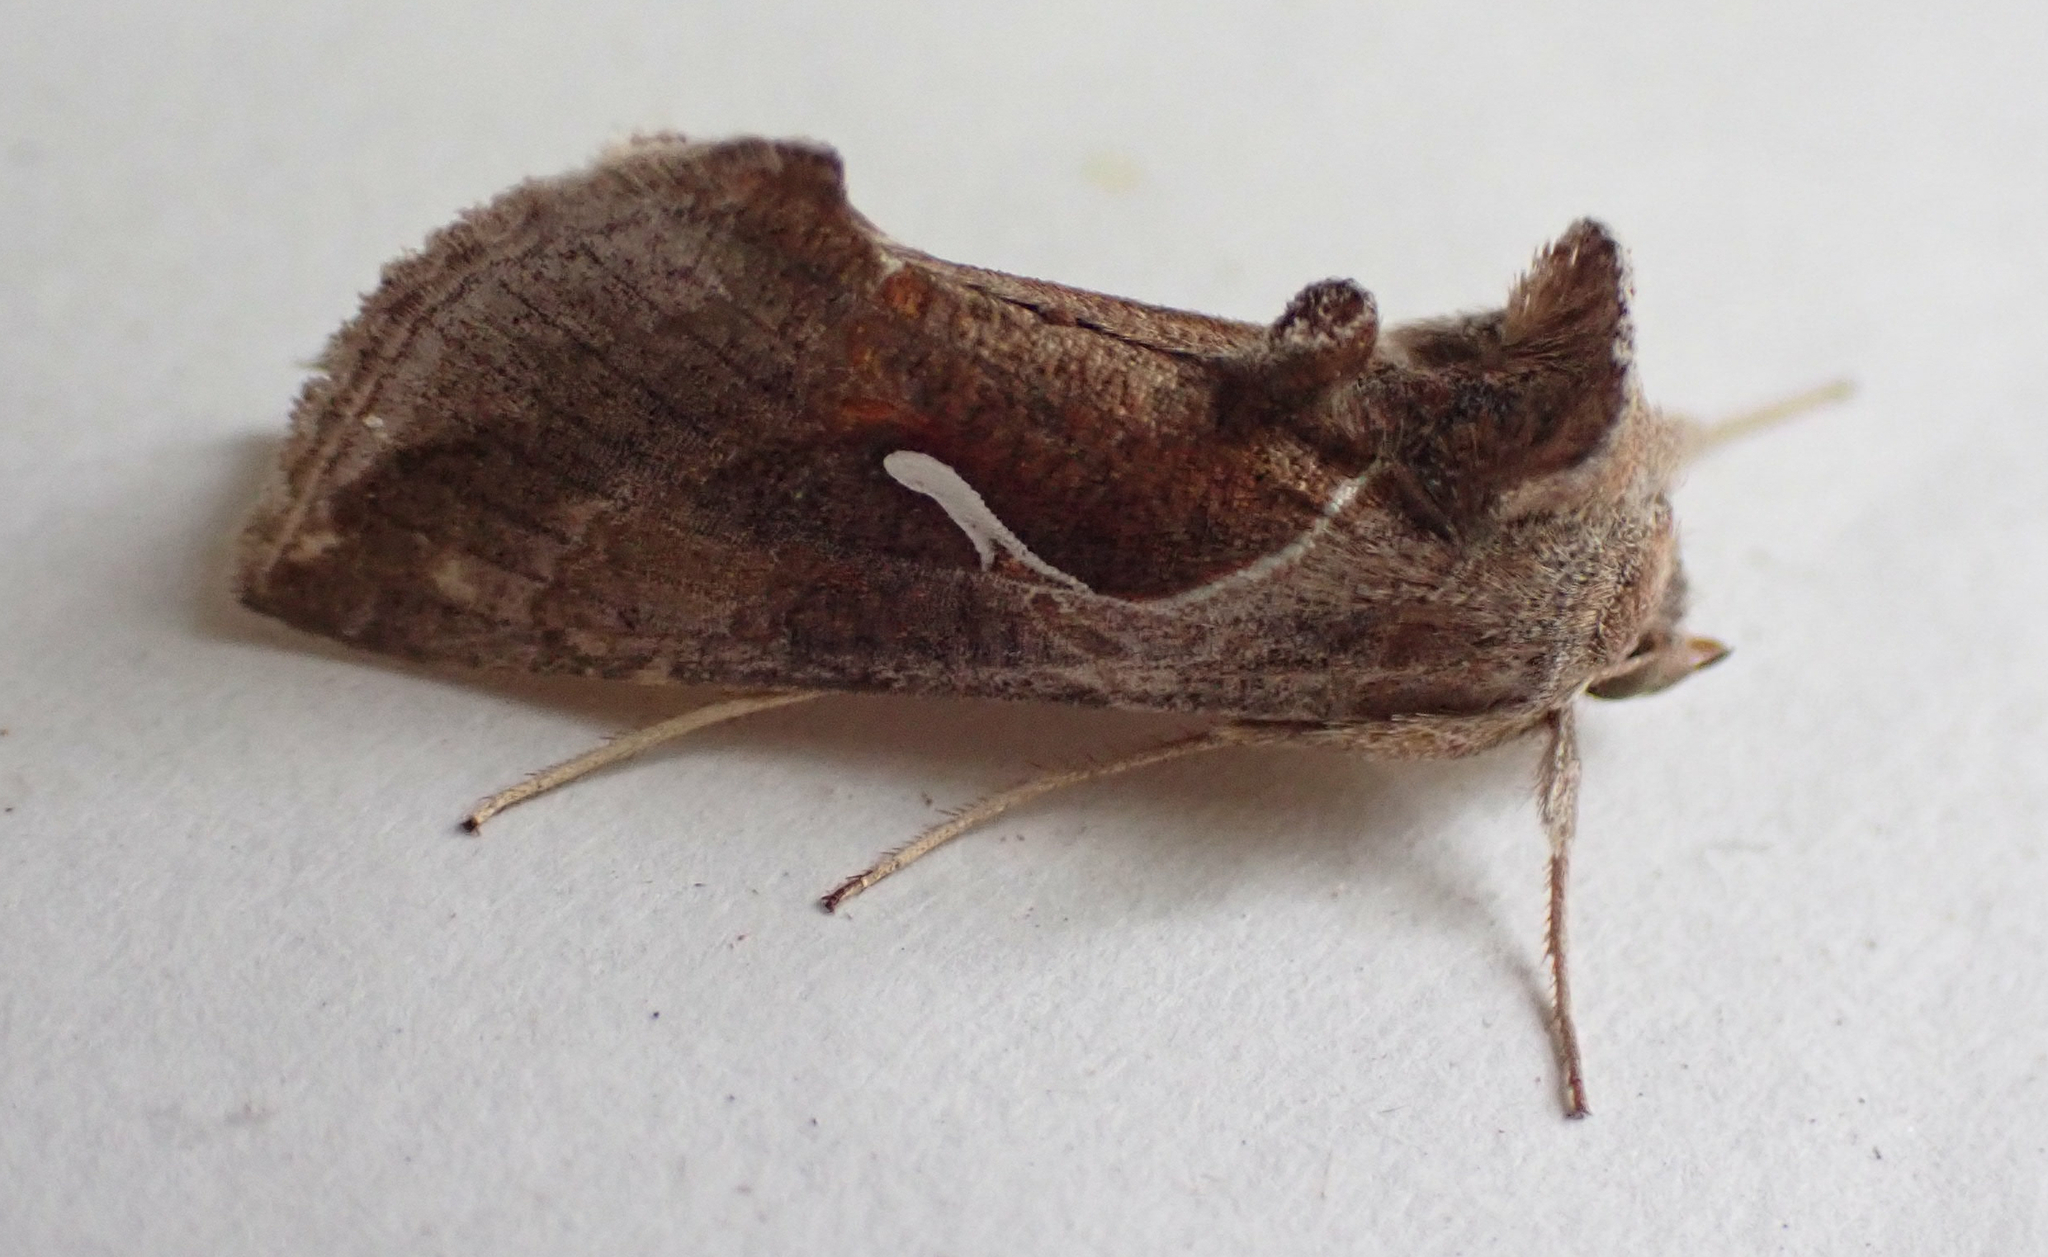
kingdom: Animalia
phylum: Arthropoda
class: Insecta
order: Lepidoptera
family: Noctuidae
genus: Anagrapha
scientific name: Anagrapha falcifera
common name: Celery looper
